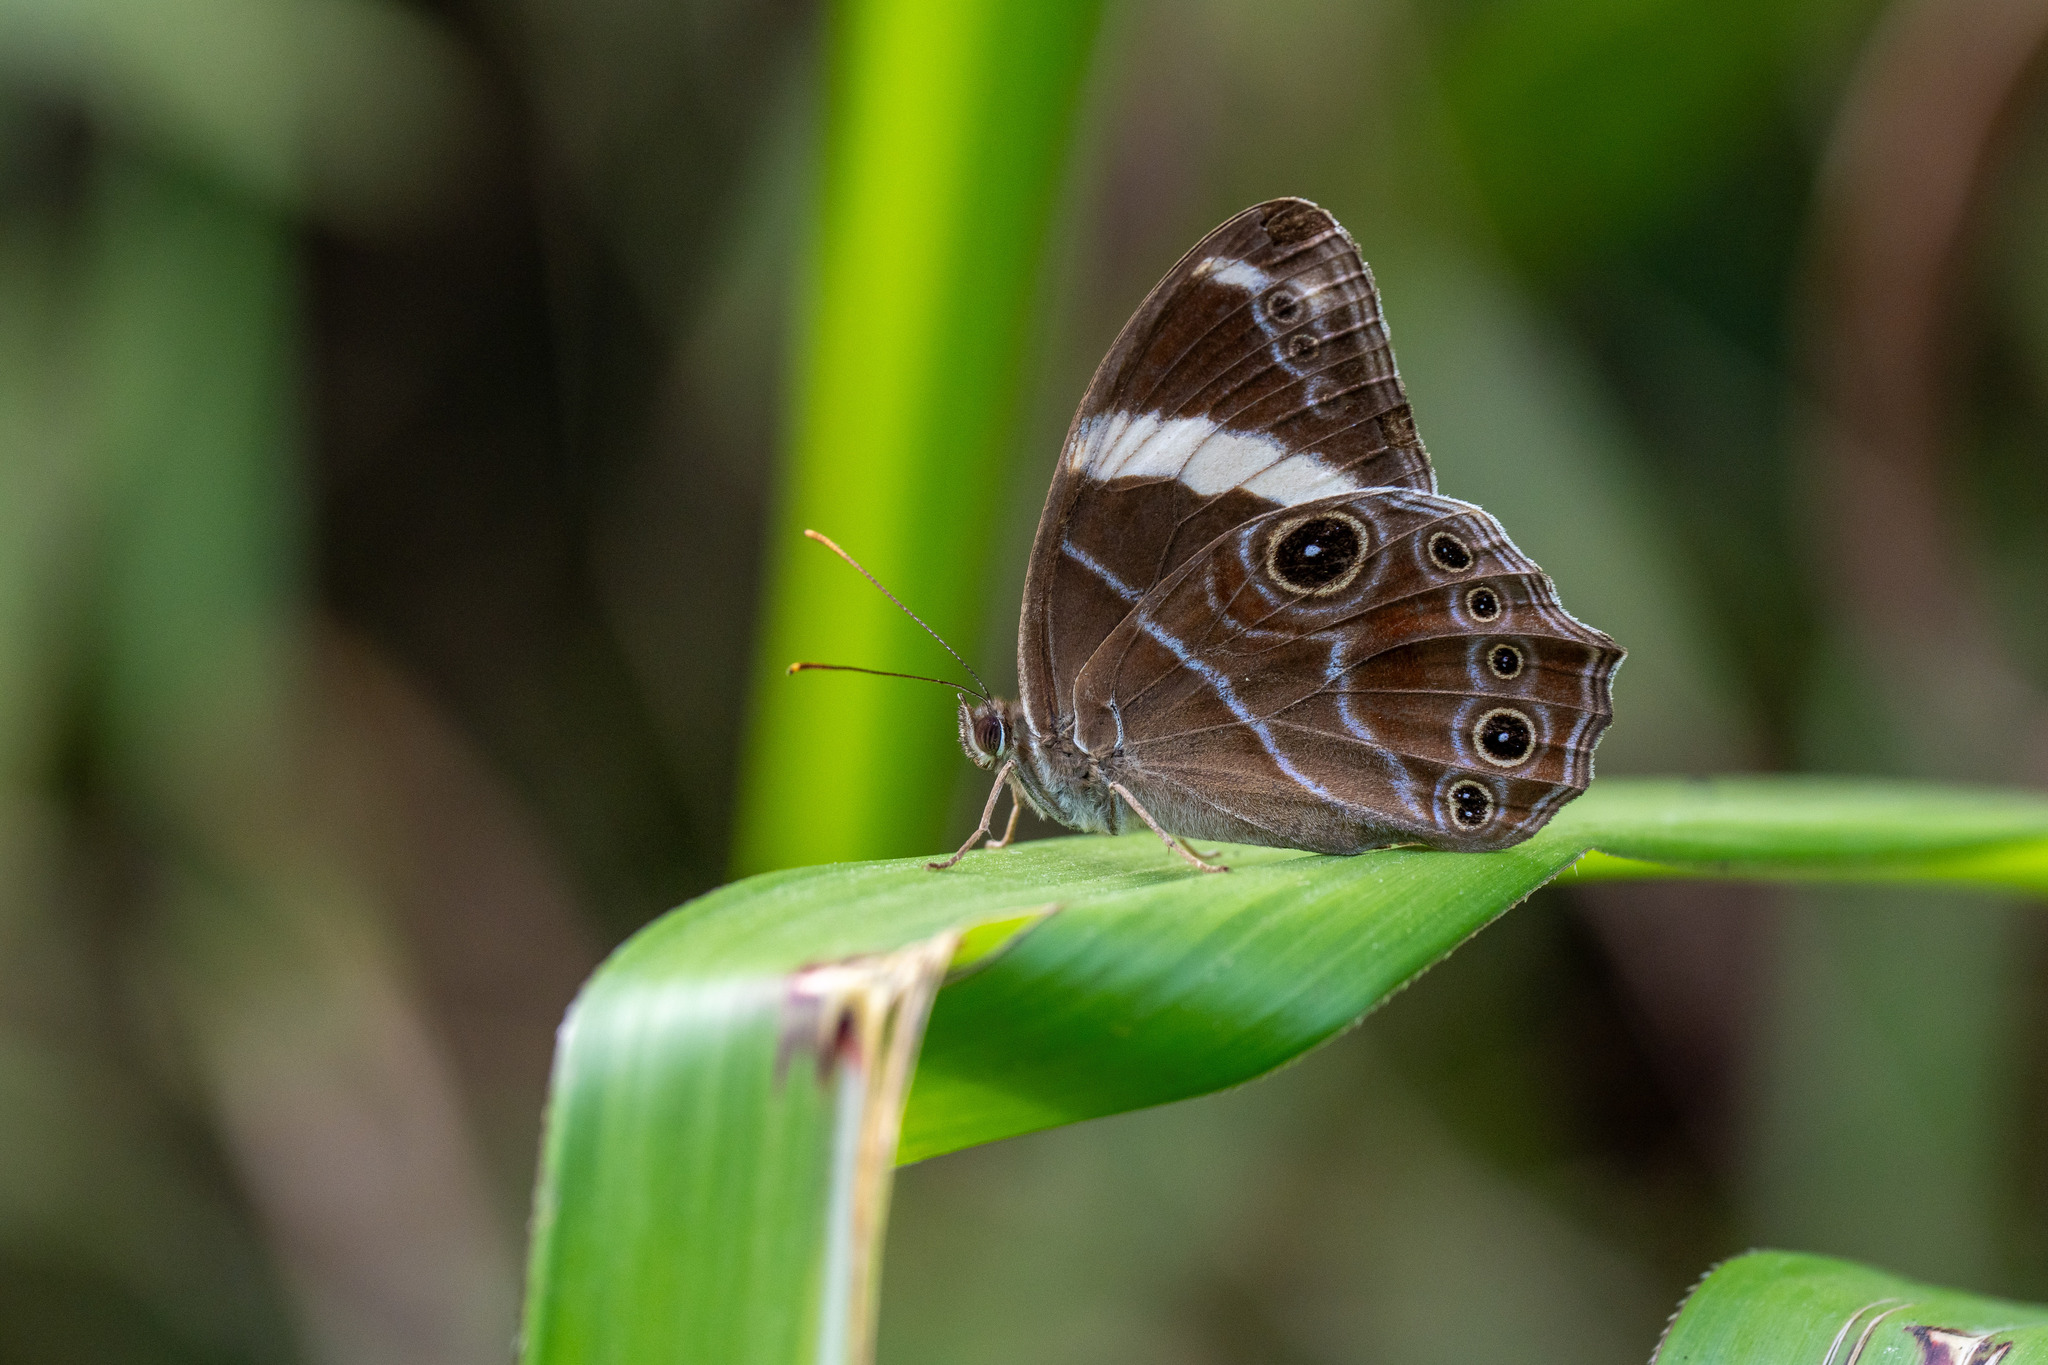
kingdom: Animalia
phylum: Arthropoda
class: Insecta
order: Lepidoptera
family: Nymphalidae
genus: Lethe
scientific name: Lethe confusa
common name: Banded treebrown
